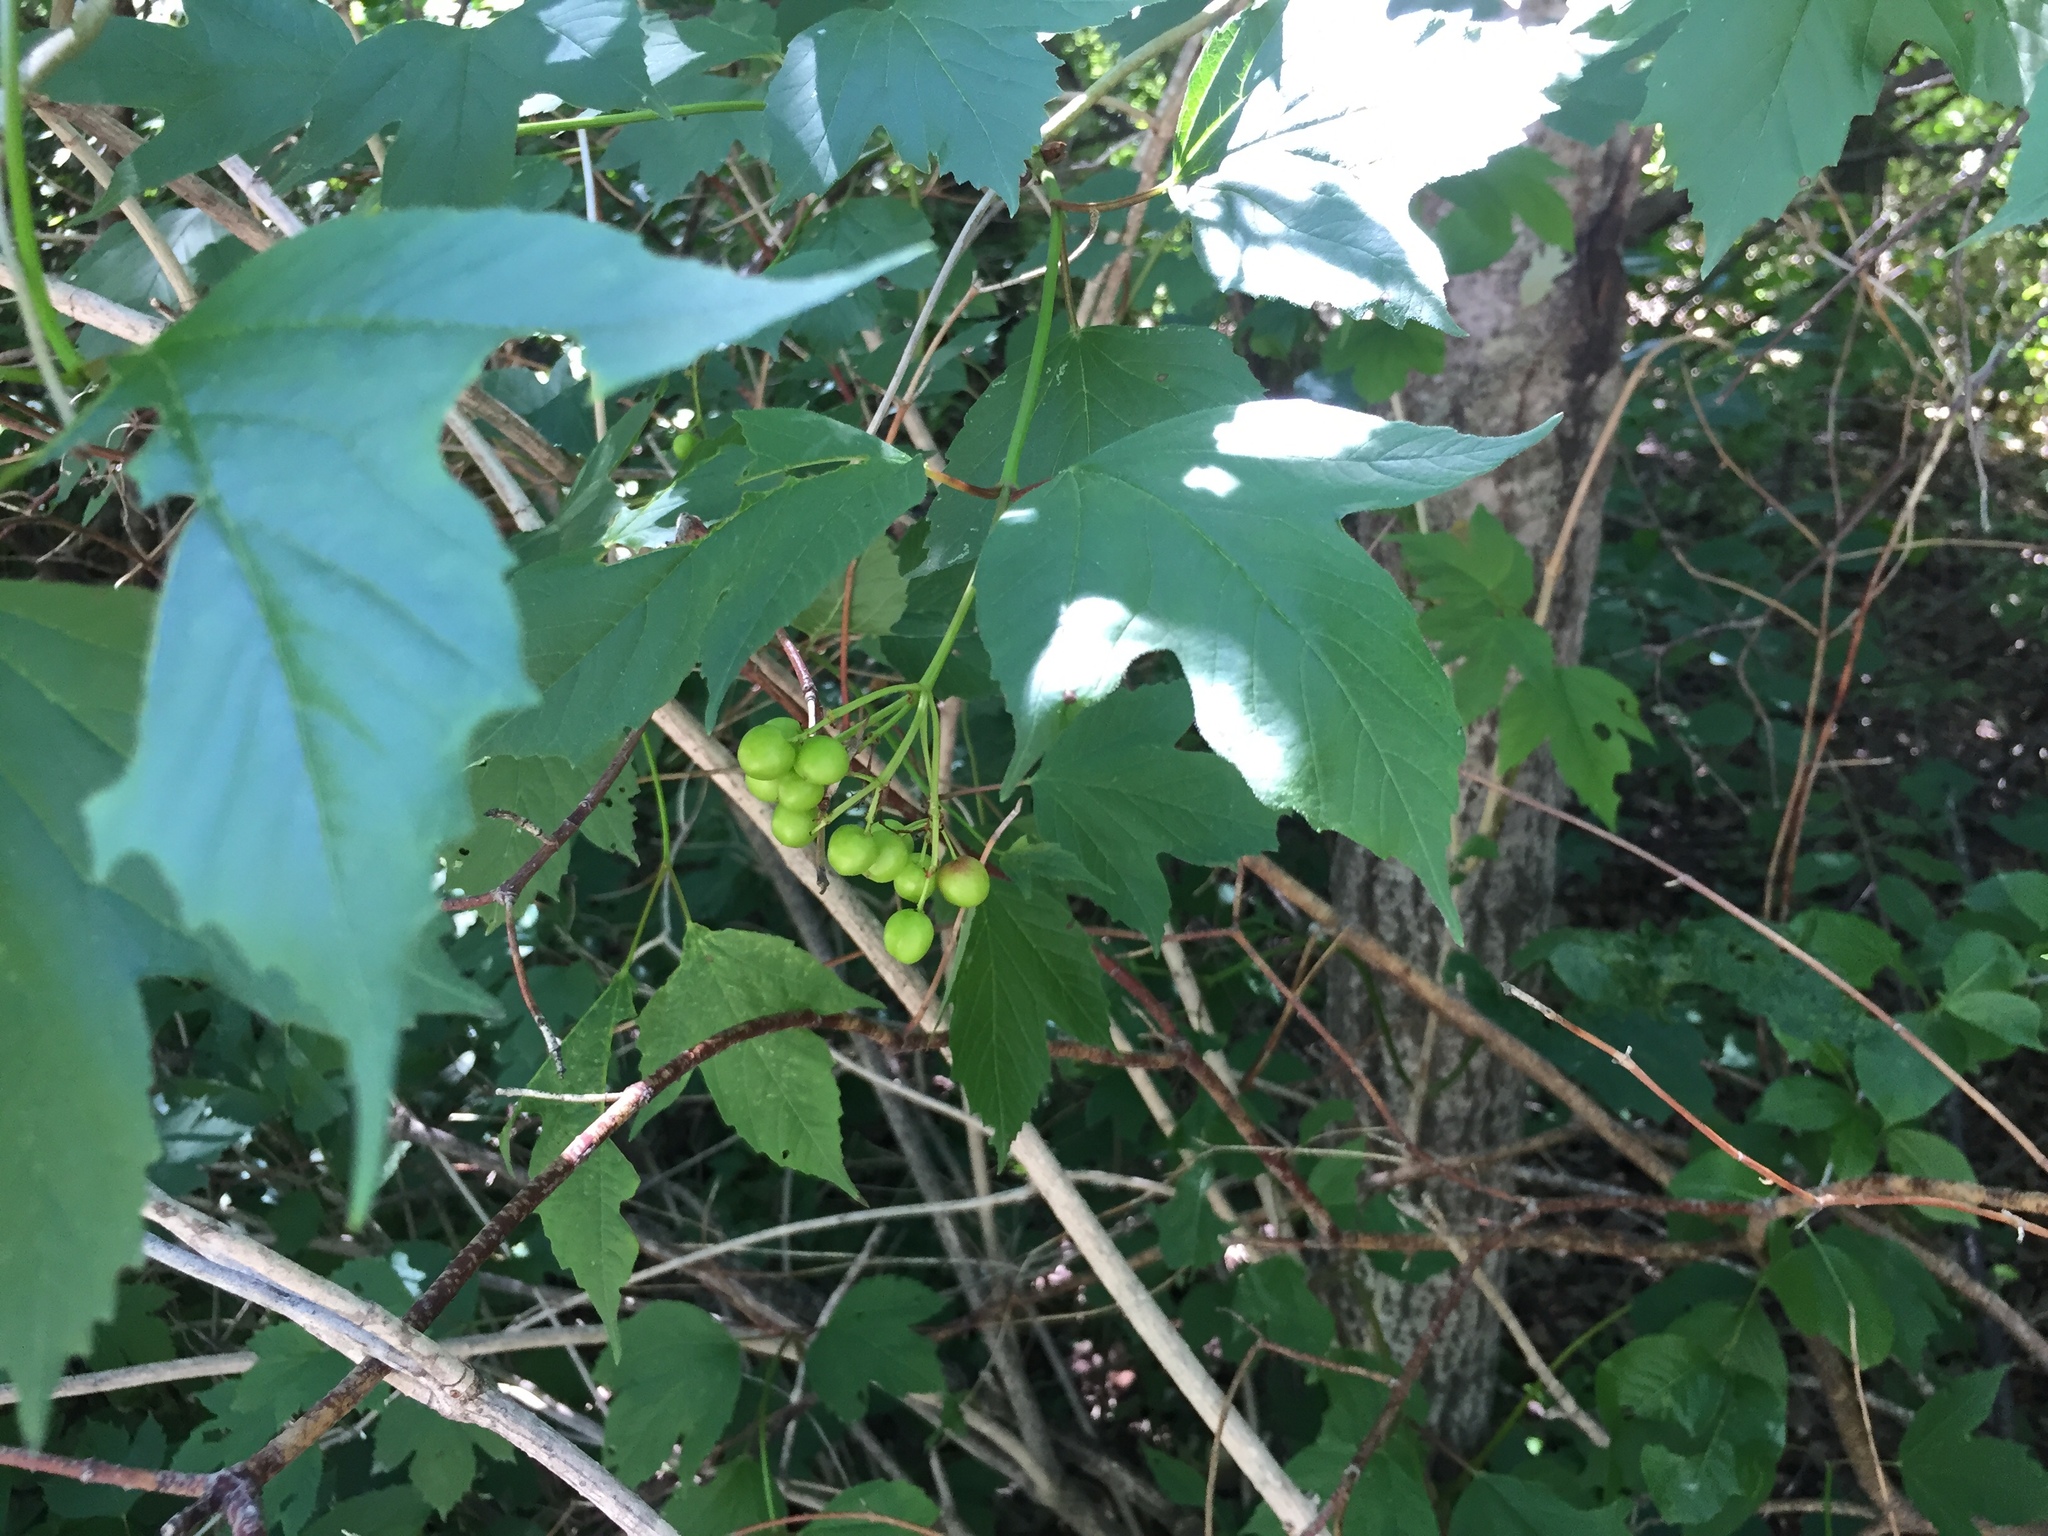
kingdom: Plantae
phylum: Tracheophyta
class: Magnoliopsida
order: Dipsacales
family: Viburnaceae
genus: Viburnum
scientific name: Viburnum opulus
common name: Guelder-rose
